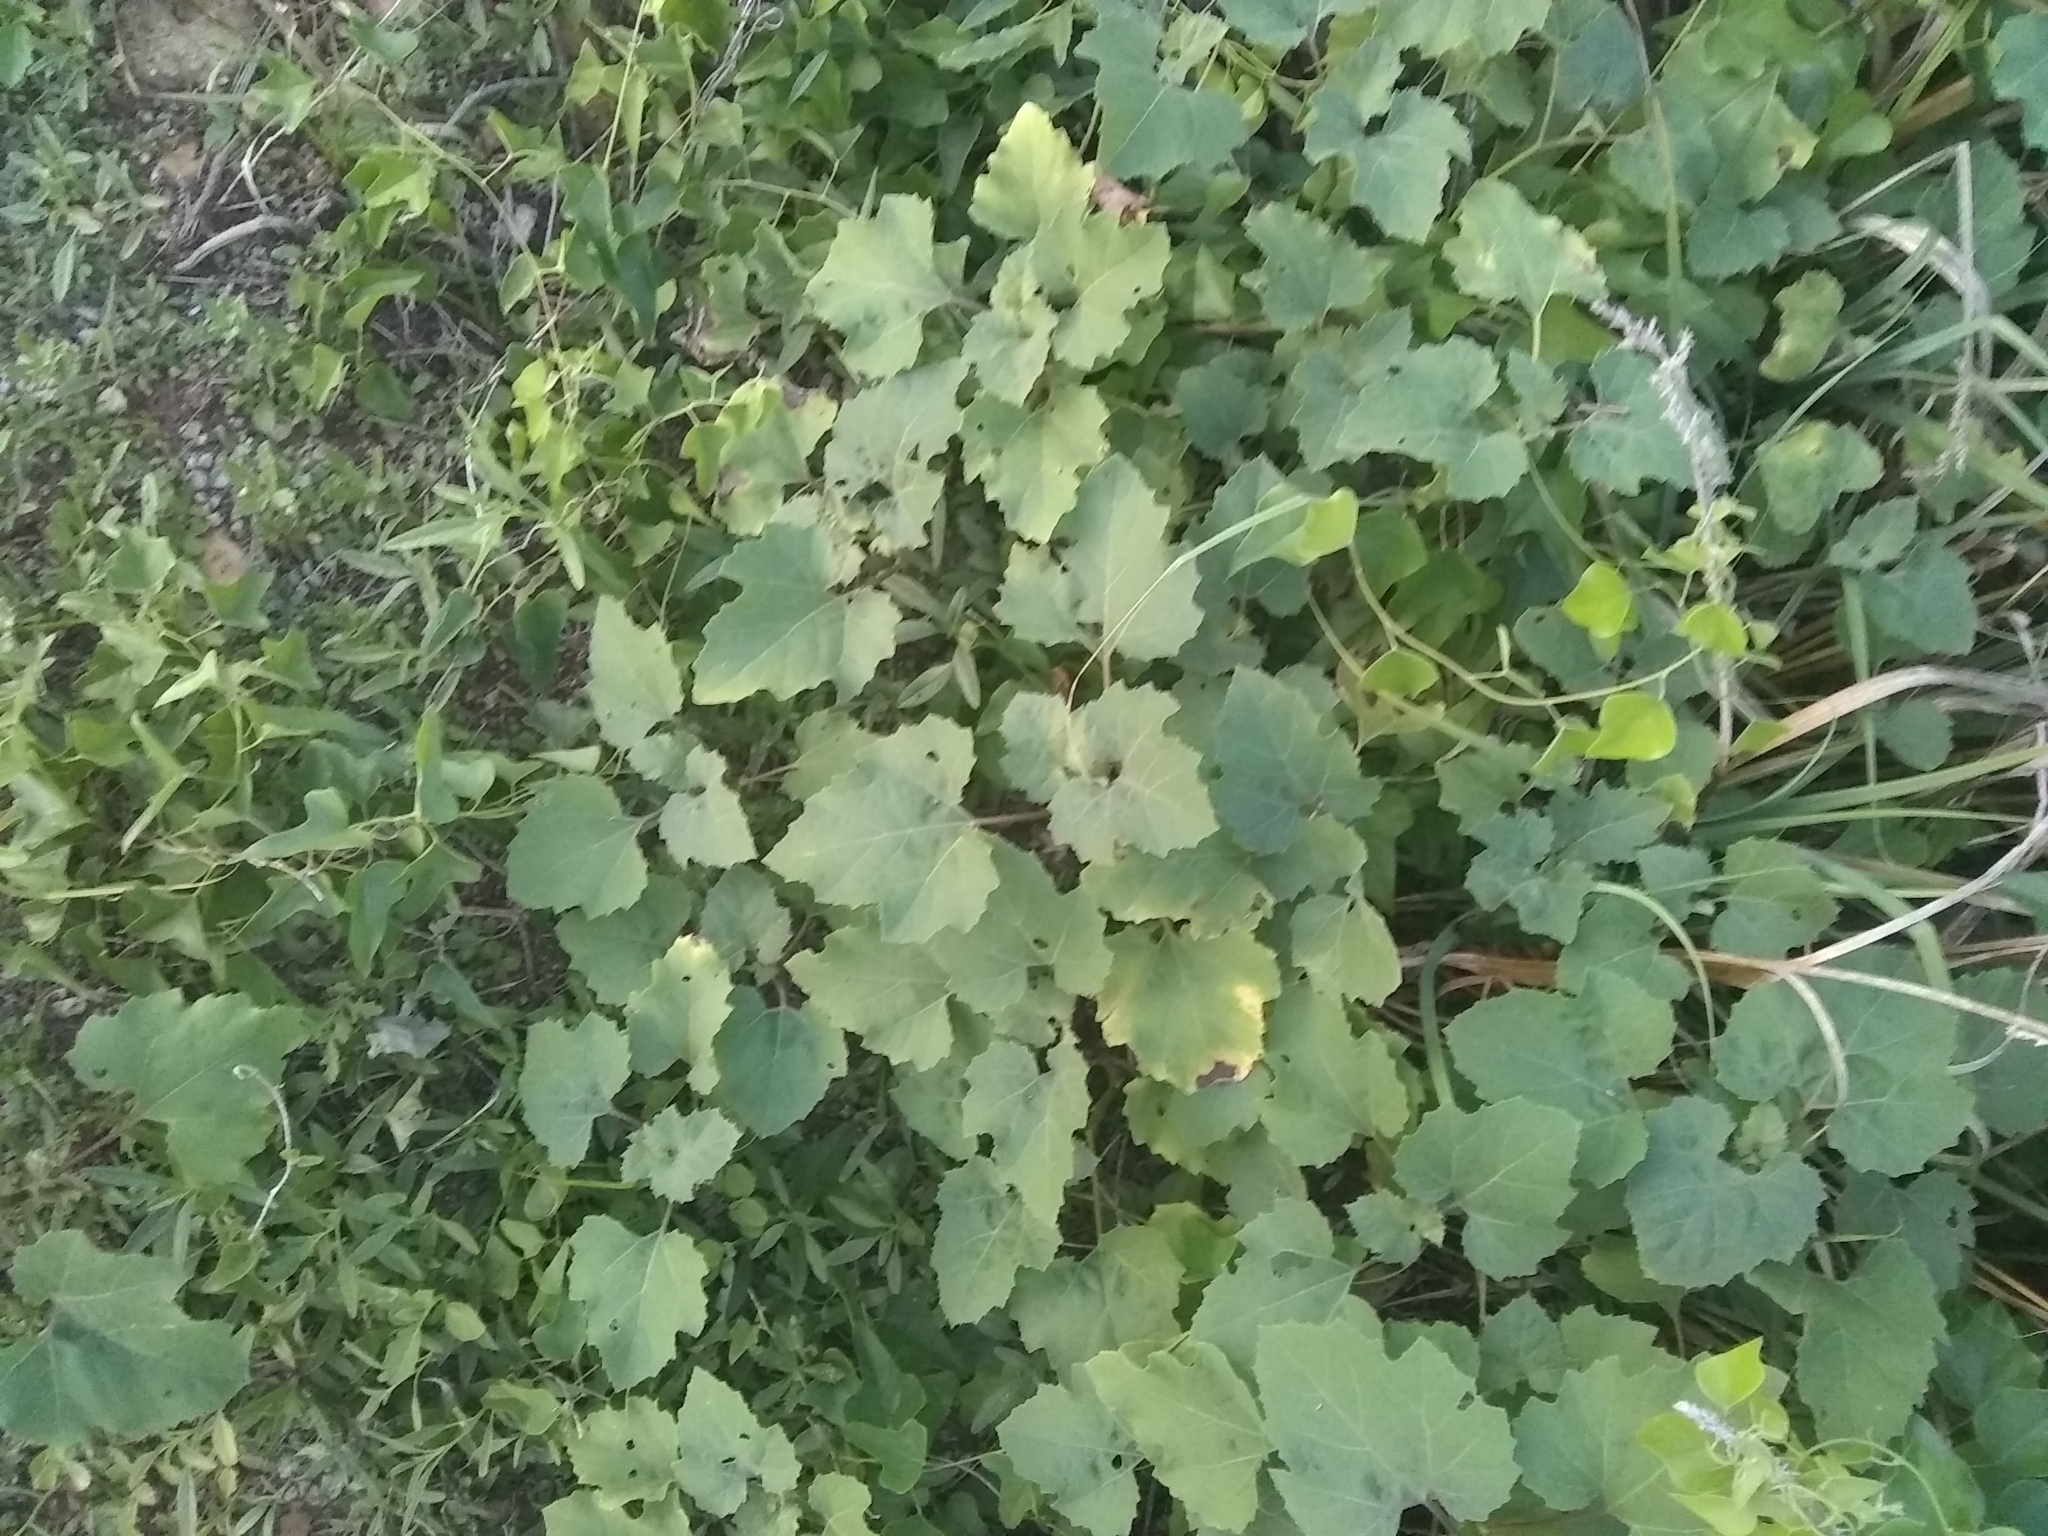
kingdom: Plantae
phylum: Tracheophyta
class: Magnoliopsida
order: Asterales
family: Asteraceae
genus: Xanthium
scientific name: Xanthium strumarium
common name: Rough cocklebur
